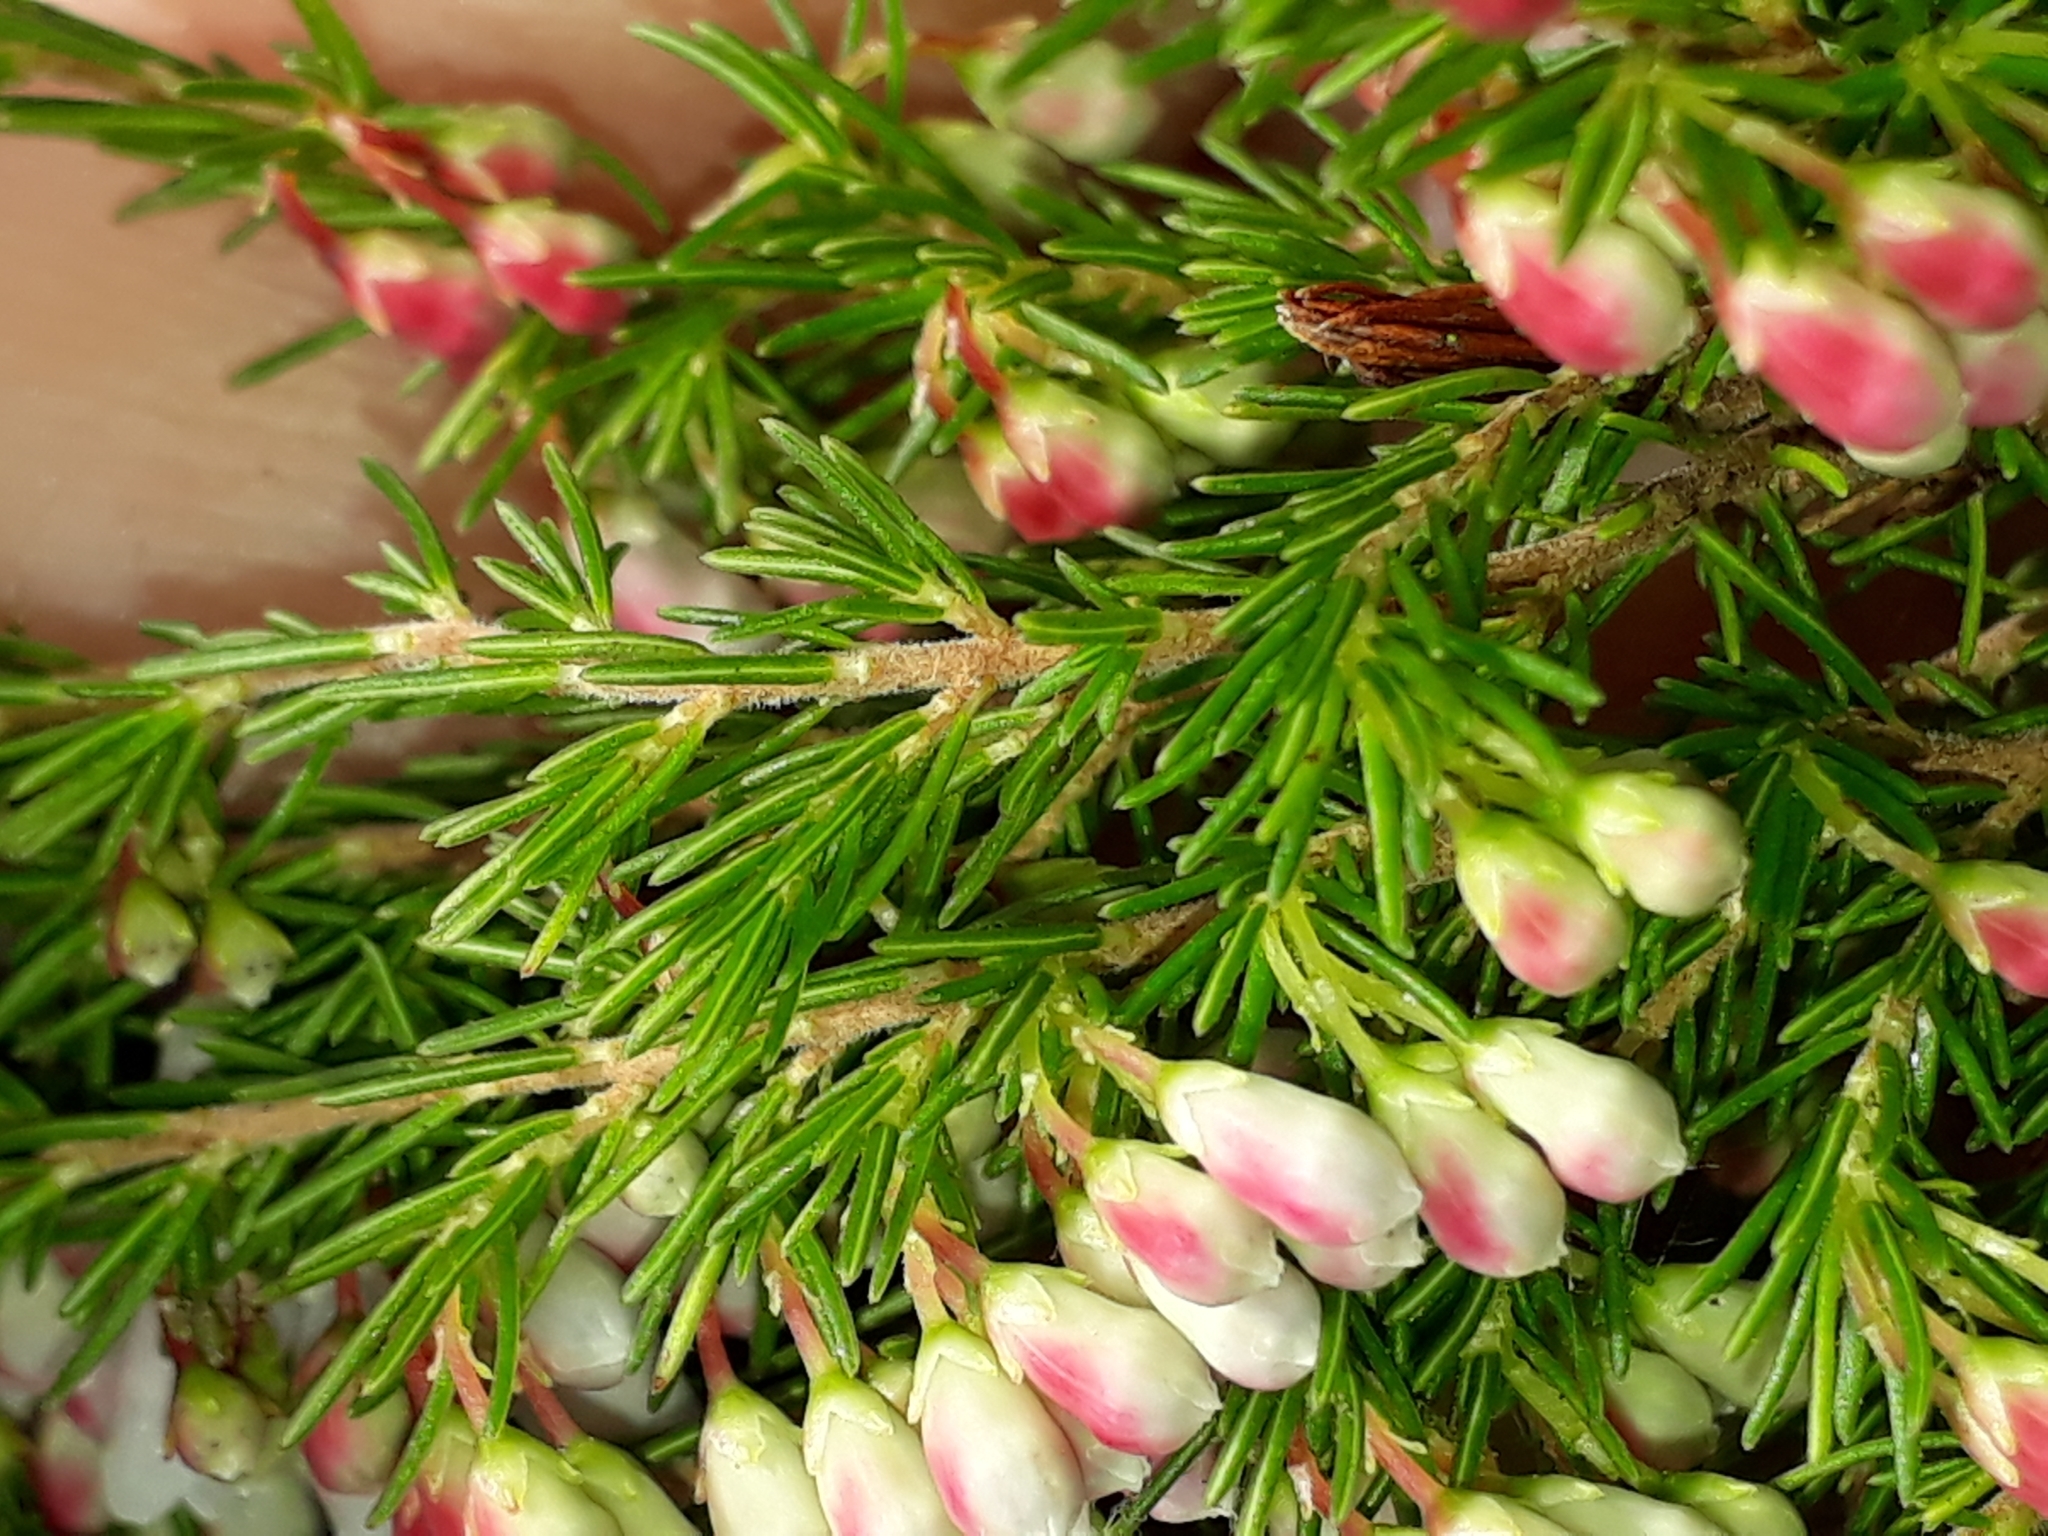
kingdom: Plantae
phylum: Tracheophyta
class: Magnoliopsida
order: Ericales
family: Ericaceae
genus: Erica
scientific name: Erica lusitanica
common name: Spanish heath
